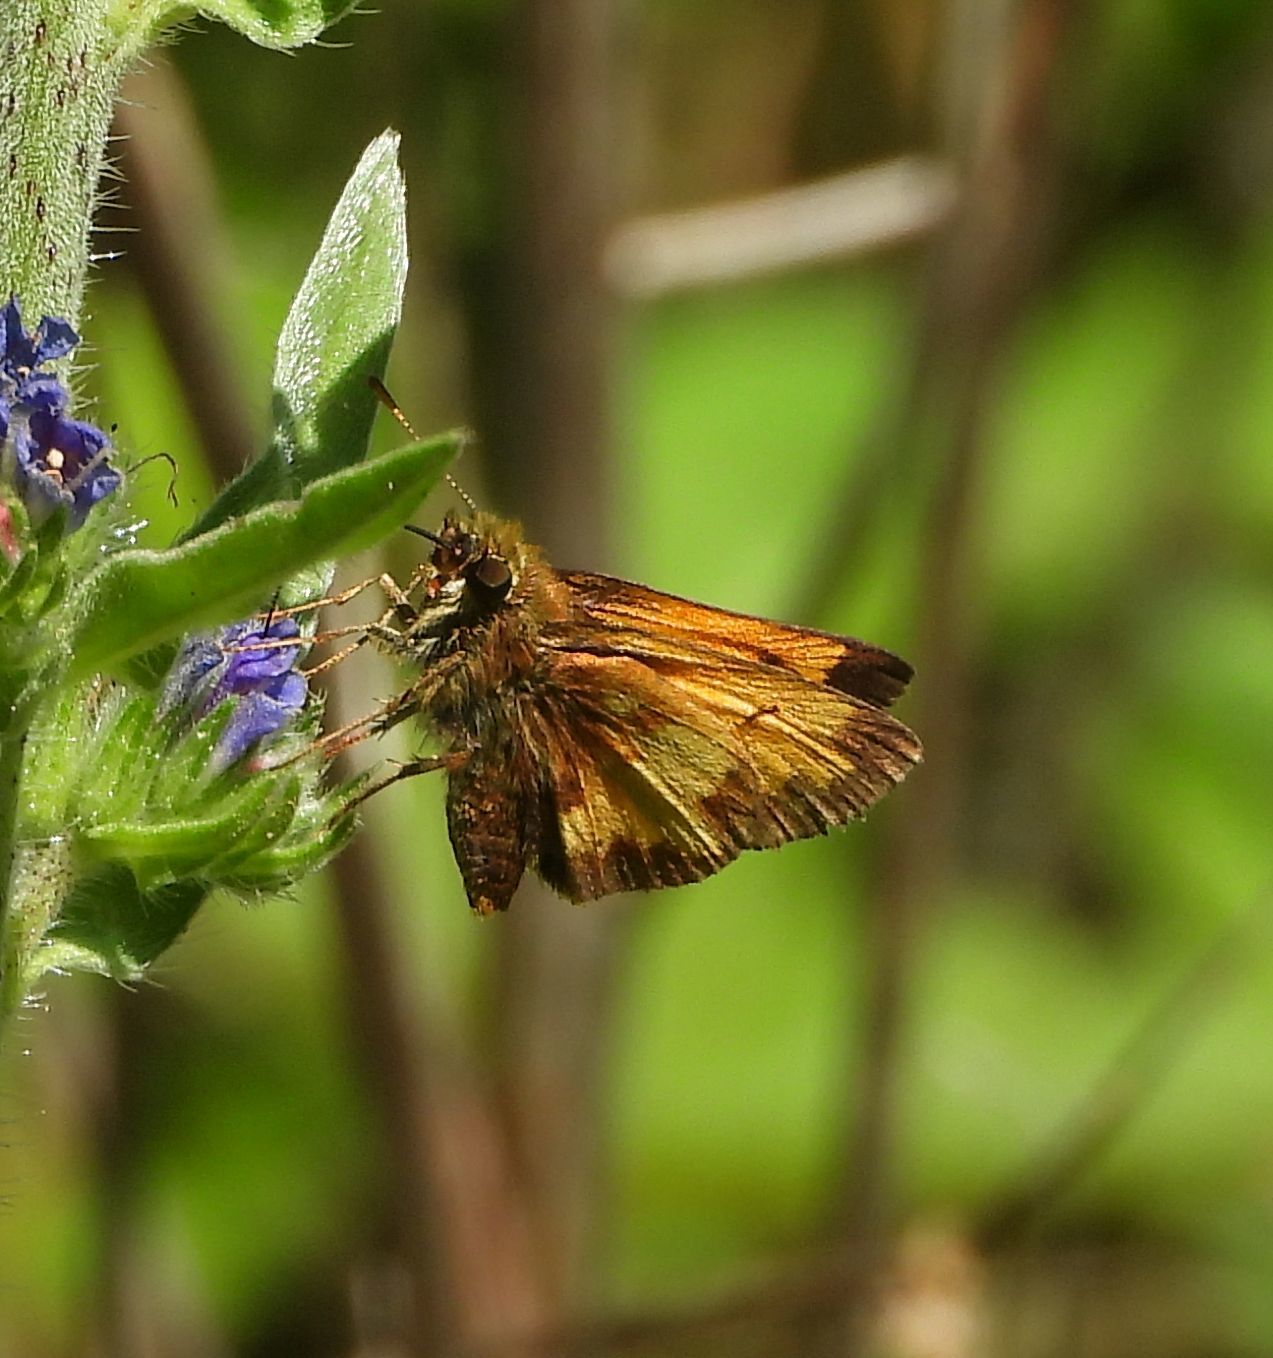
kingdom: Animalia
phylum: Arthropoda
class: Insecta
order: Lepidoptera
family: Hesperiidae
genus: Lon
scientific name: Lon hobomok
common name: Hobomok skipper
